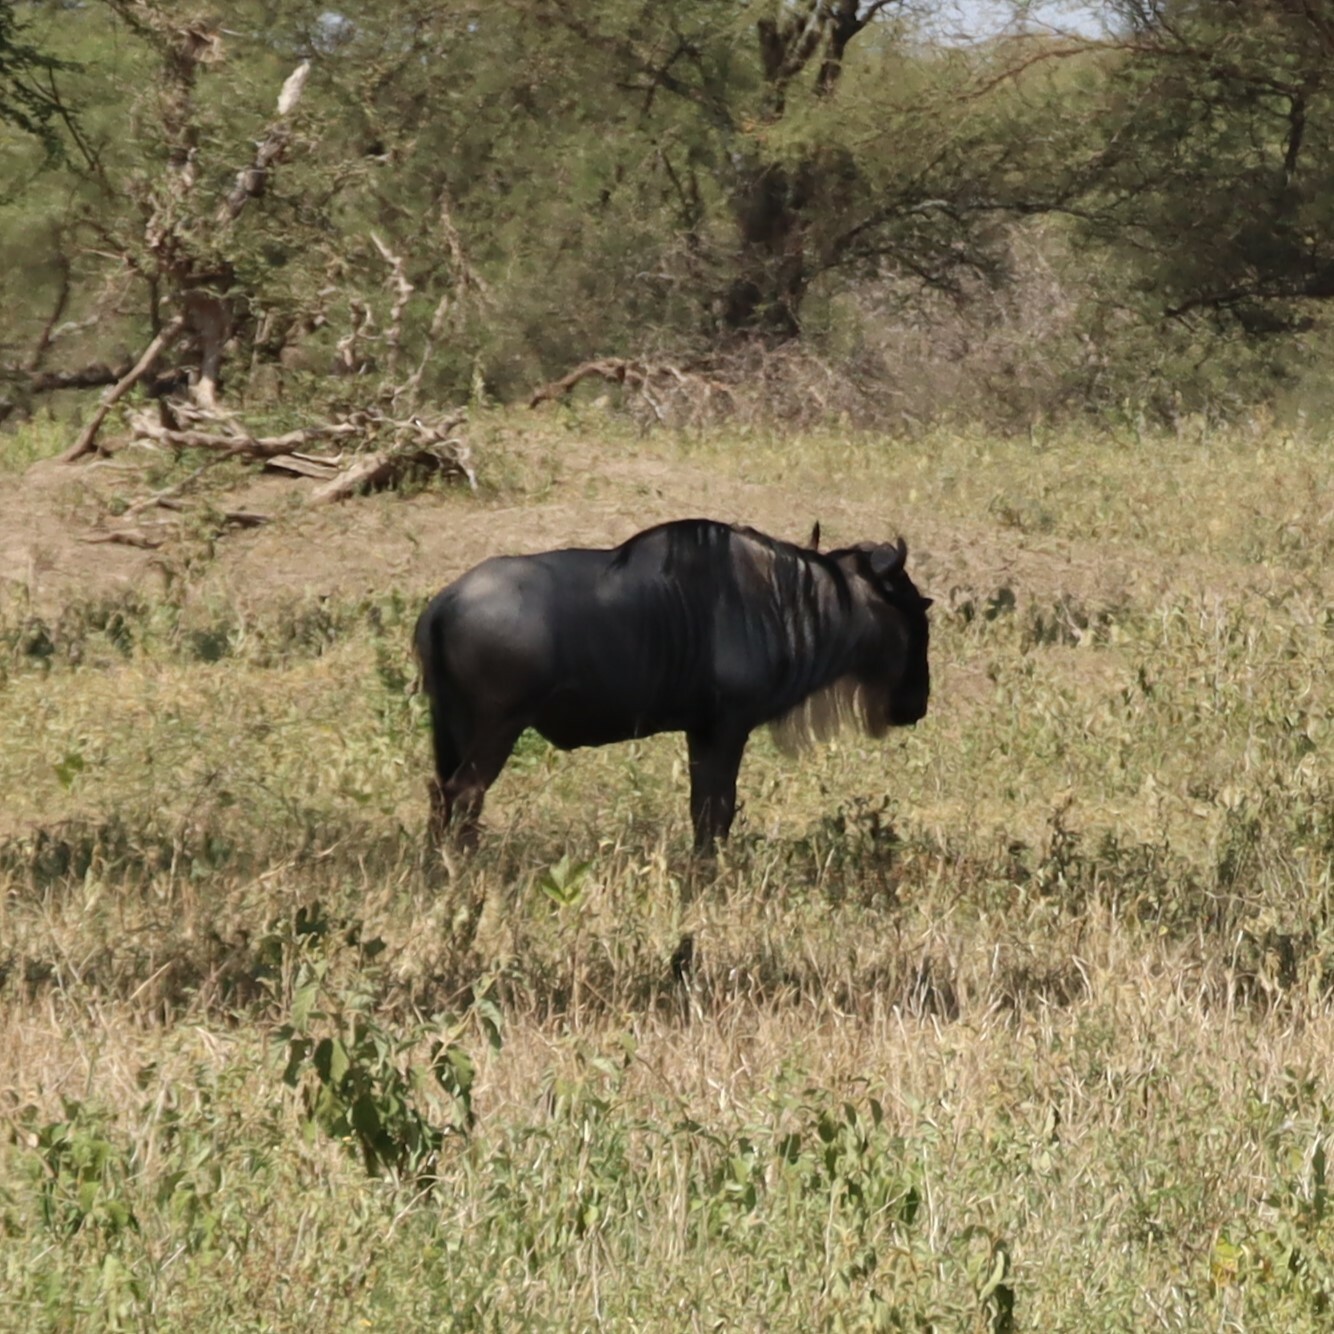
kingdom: Animalia
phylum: Chordata
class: Mammalia
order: Artiodactyla
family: Bovidae
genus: Connochaetes
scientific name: Connochaetes taurinus
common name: Blue wildebeest
